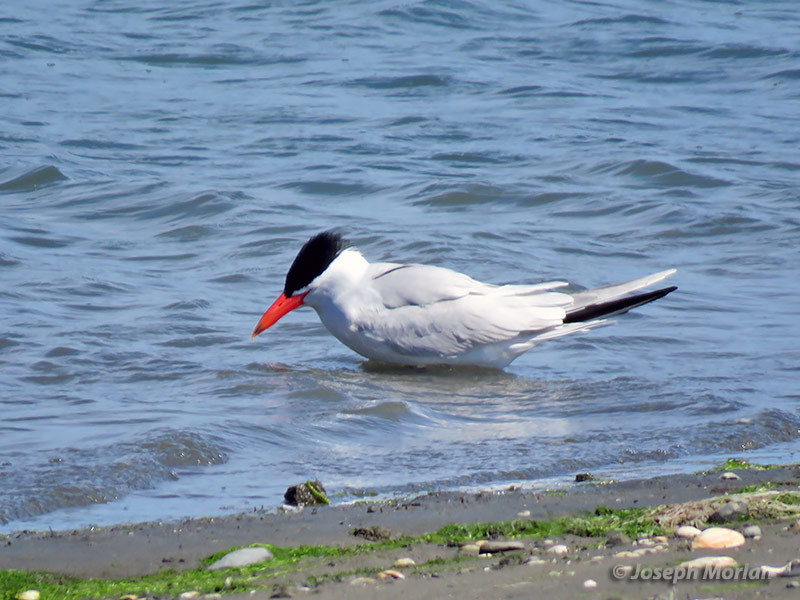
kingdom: Animalia
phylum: Chordata
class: Aves
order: Charadriiformes
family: Laridae
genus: Hydroprogne
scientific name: Hydroprogne caspia
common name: Caspian tern
